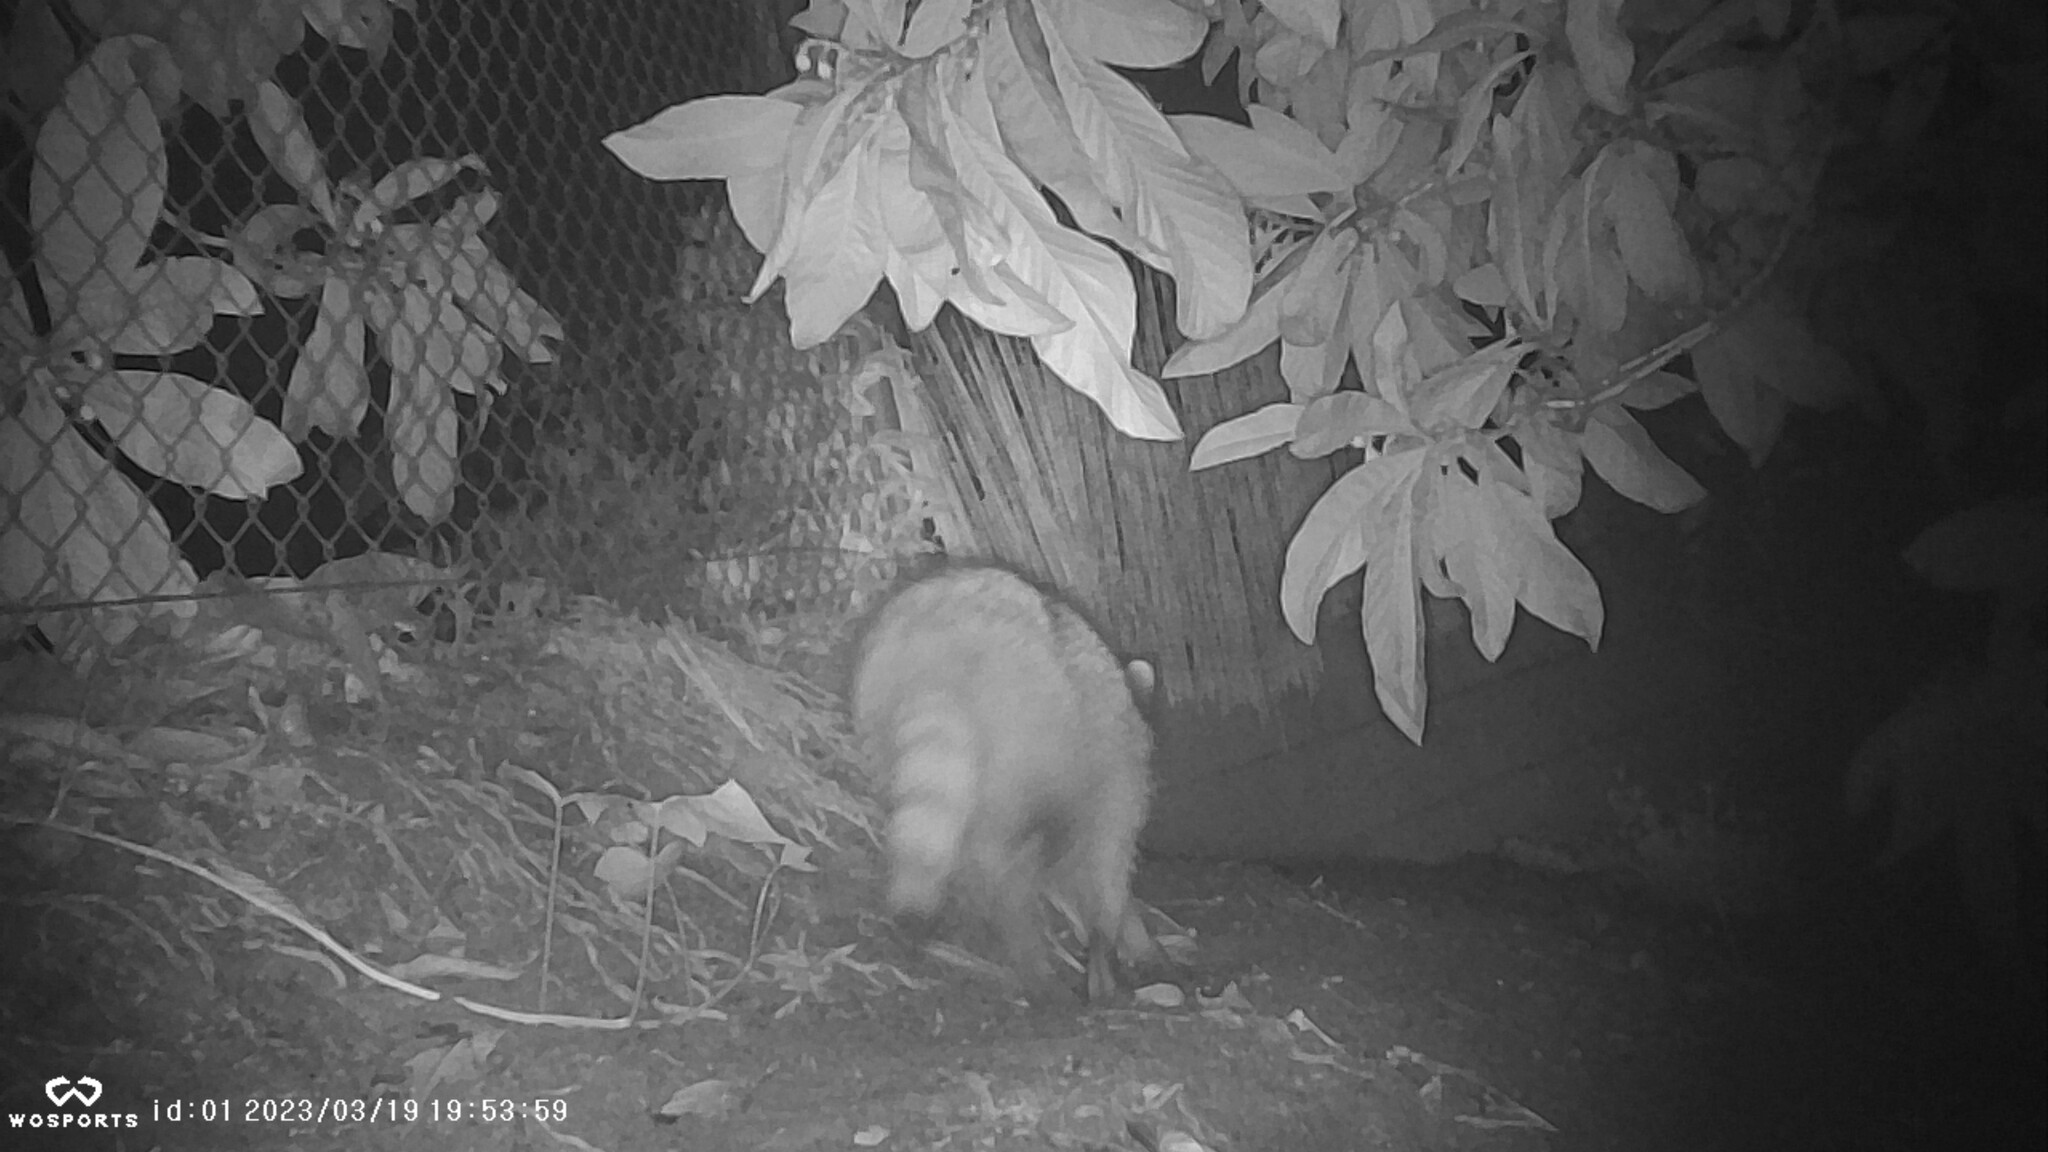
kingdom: Animalia
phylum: Chordata
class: Mammalia
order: Carnivora
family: Procyonidae
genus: Procyon
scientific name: Procyon lotor
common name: Raccoon
